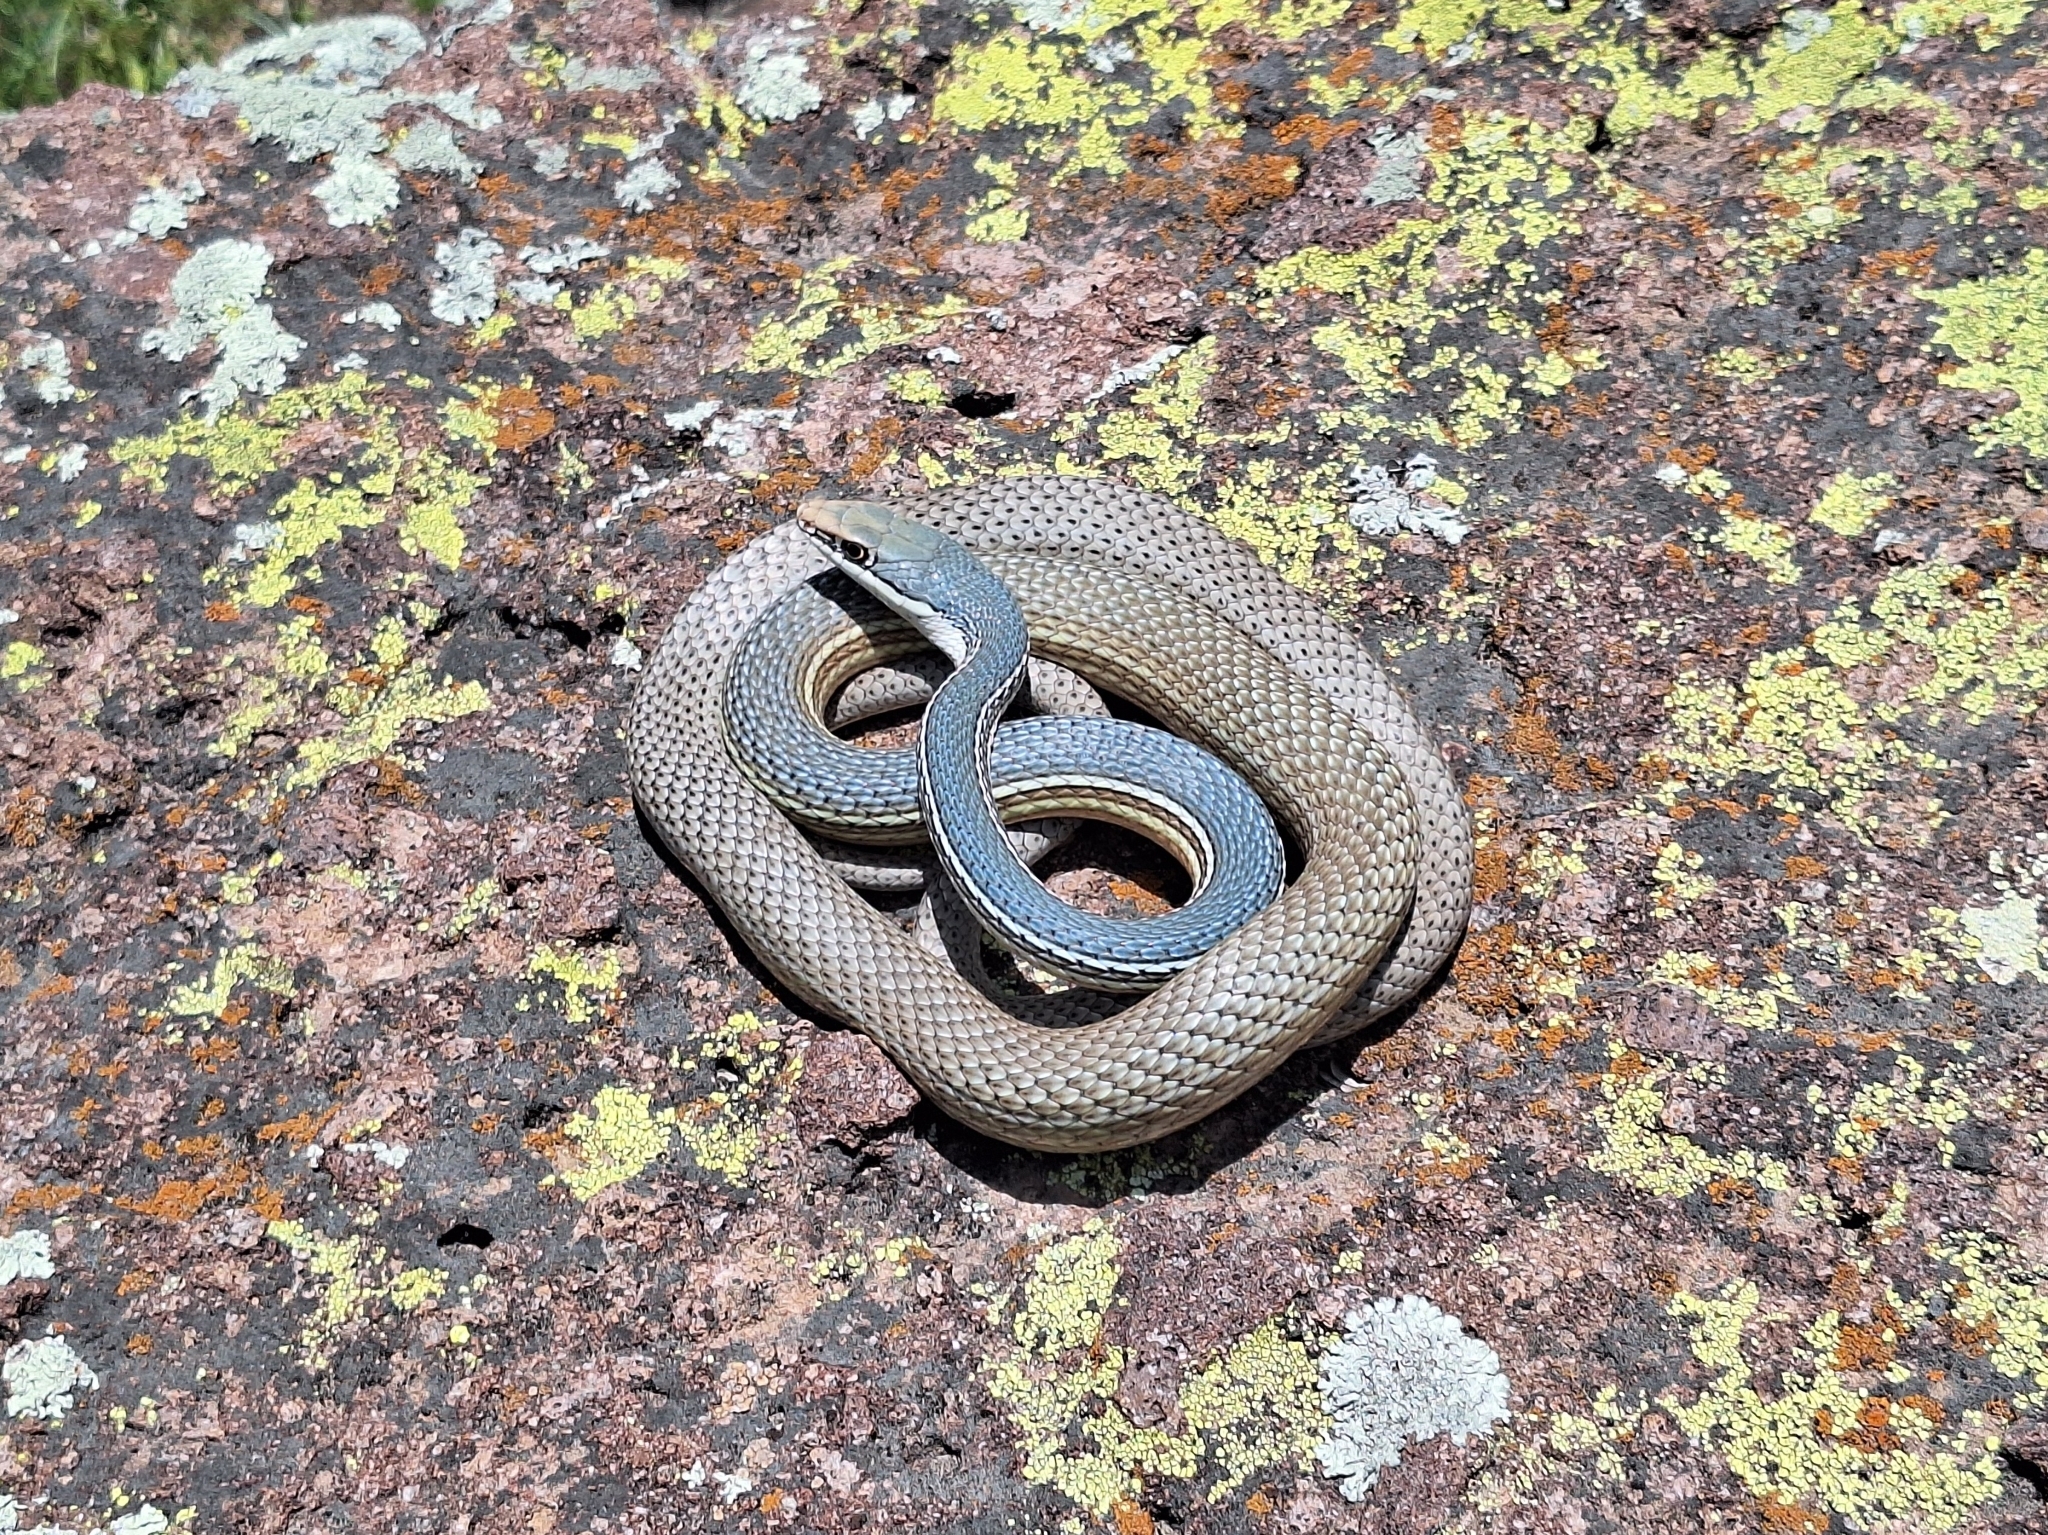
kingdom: Animalia
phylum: Chordata
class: Squamata
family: Colubridae
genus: Masticophis
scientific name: Masticophis bilineatus
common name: Sonoran whipsnake
